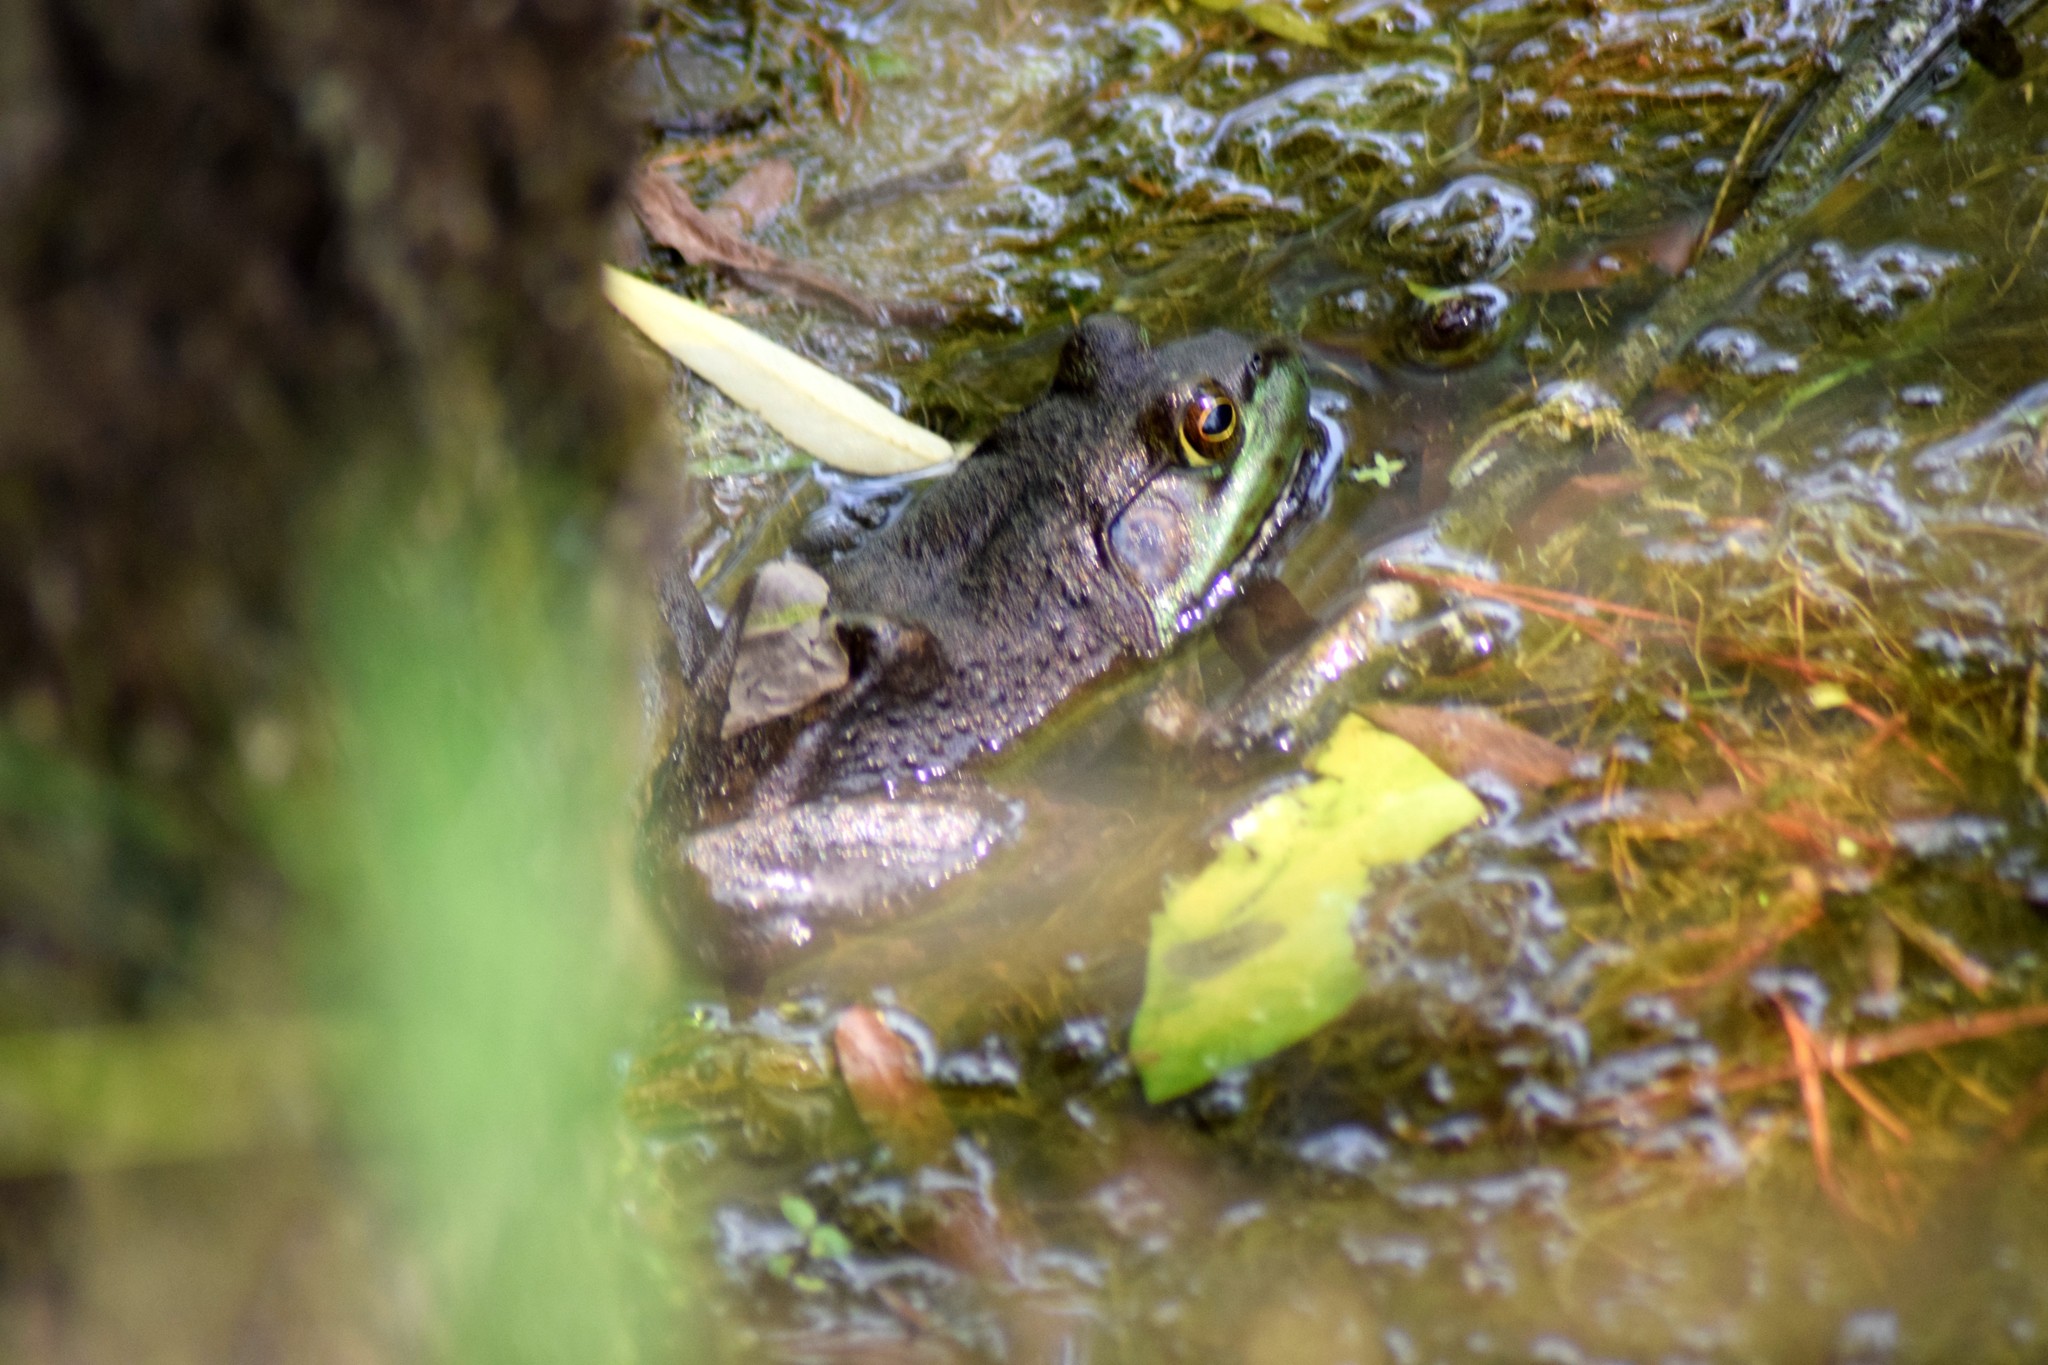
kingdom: Animalia
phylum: Chordata
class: Amphibia
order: Anura
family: Ranidae
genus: Lithobates
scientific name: Lithobates catesbeianus
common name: American bullfrog
